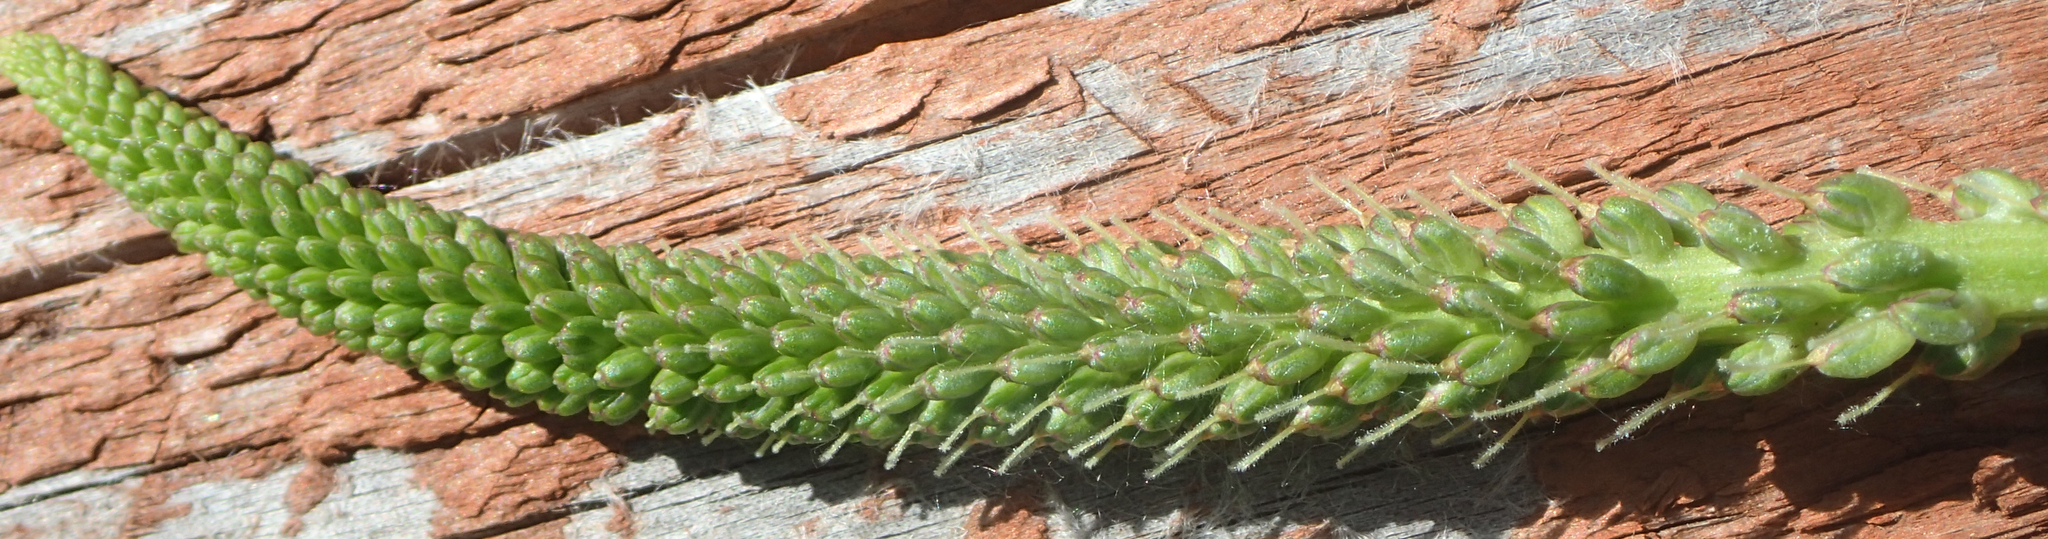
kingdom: Plantae
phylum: Tracheophyta
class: Magnoliopsida
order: Lamiales
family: Plantaginaceae
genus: Plantago
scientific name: Plantago major
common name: Common plantain
